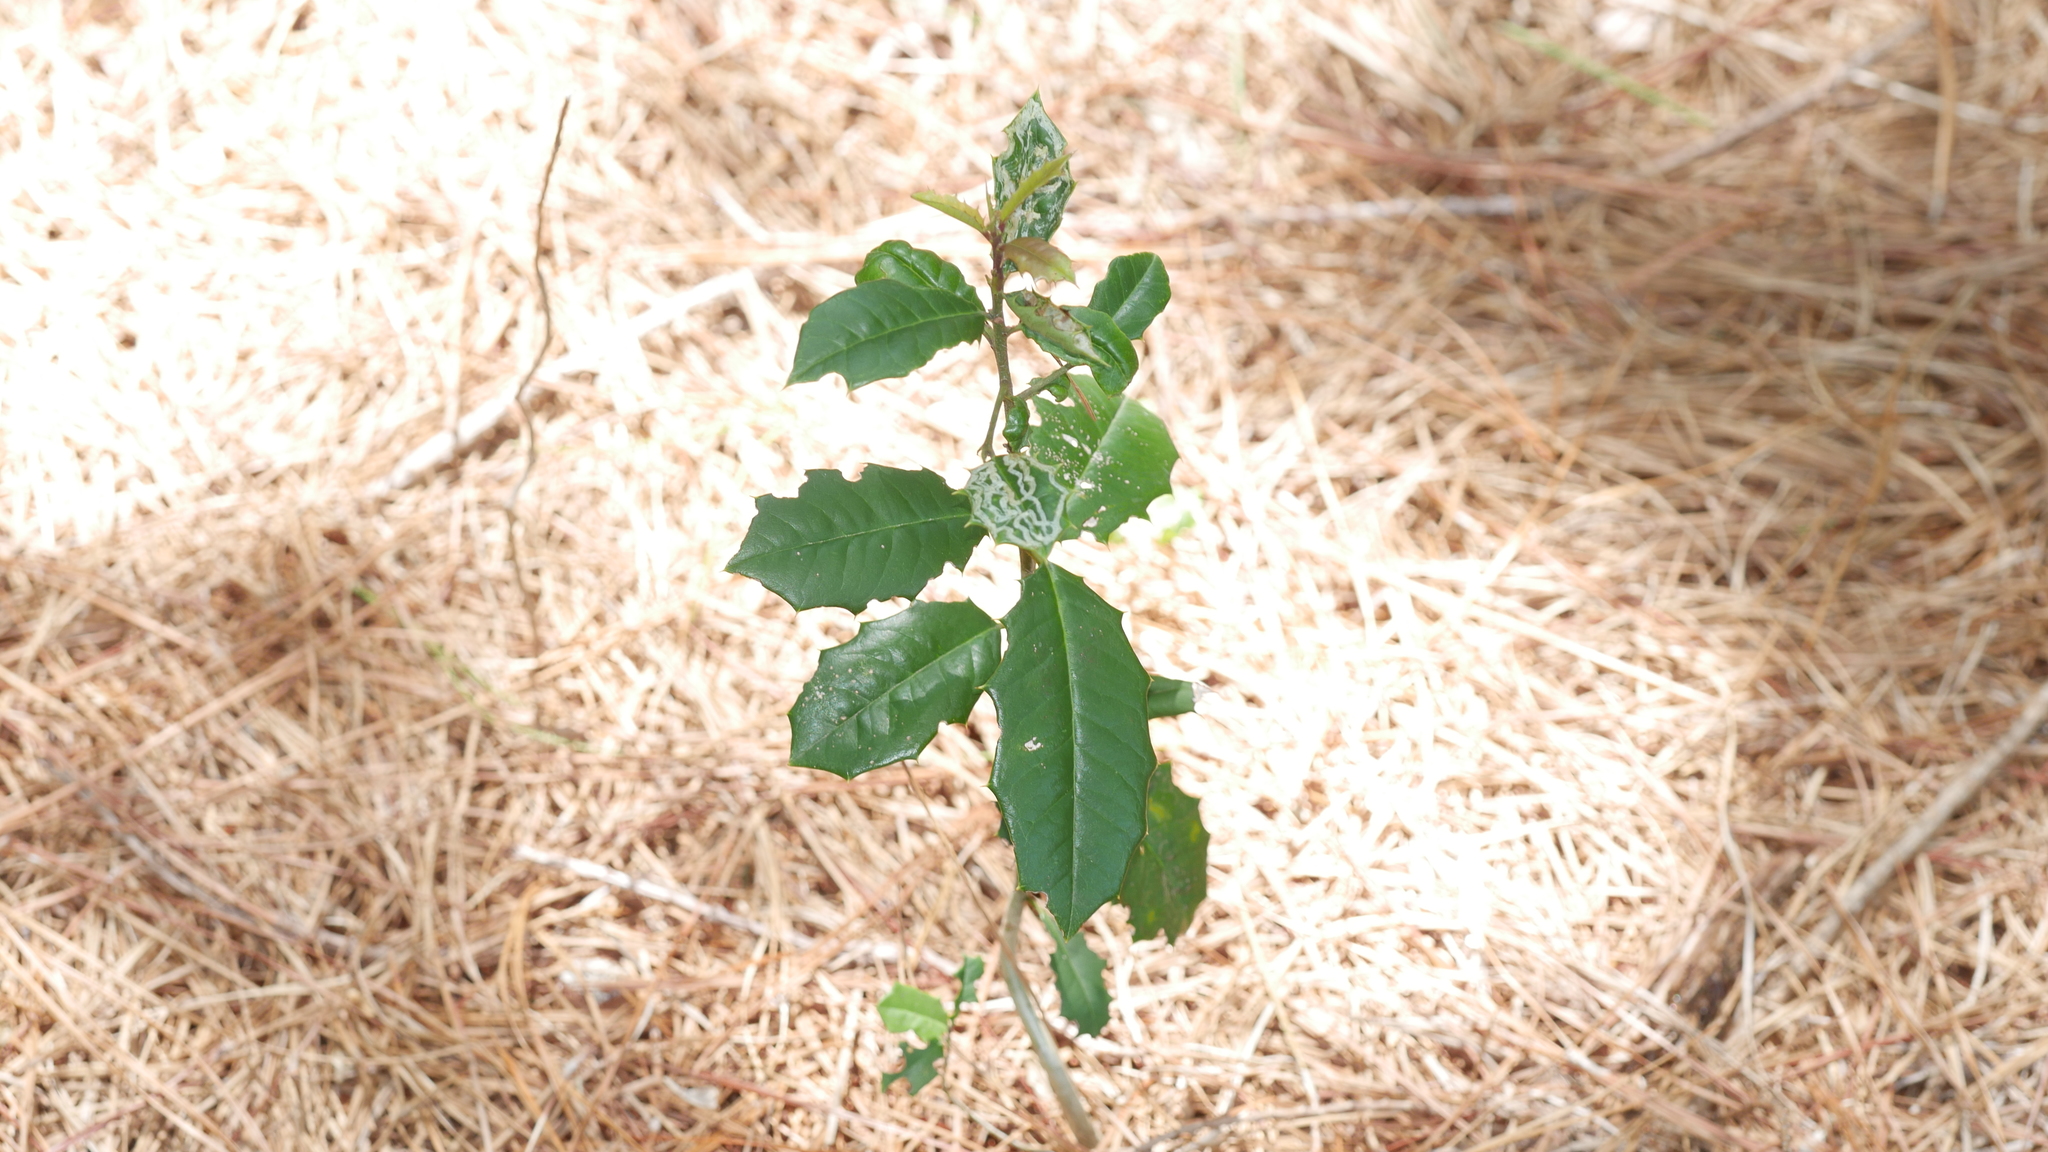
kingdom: Plantae
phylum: Tracheophyta
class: Magnoliopsida
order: Aquifoliales
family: Aquifoliaceae
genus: Ilex
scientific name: Ilex opaca
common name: American holly
